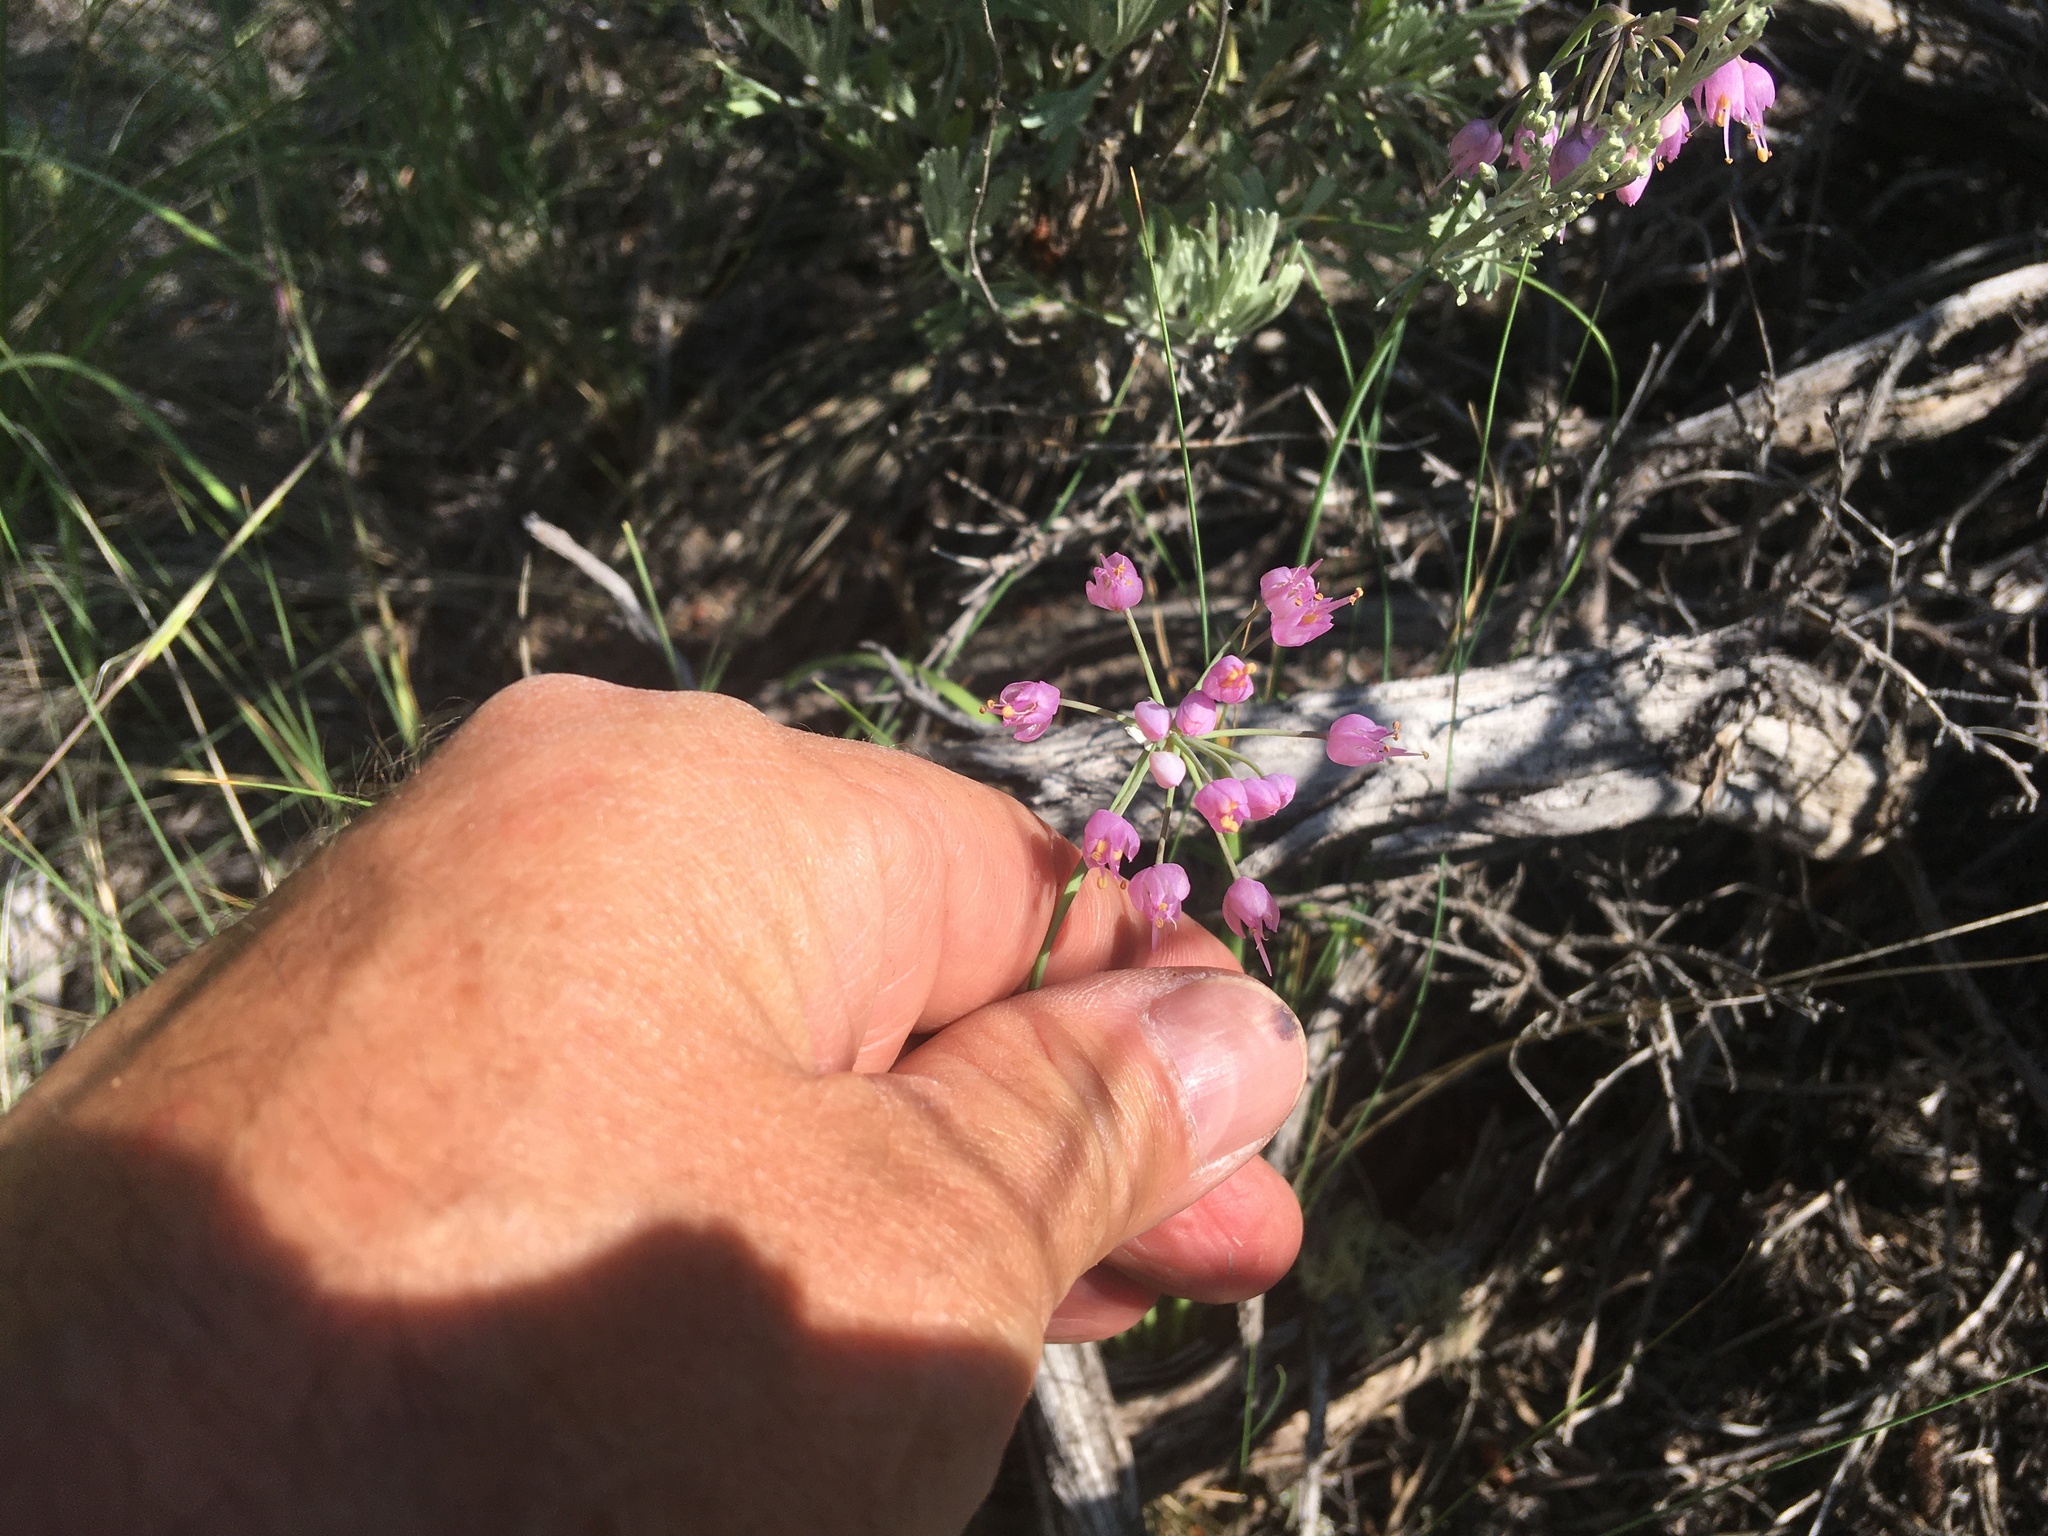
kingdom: Plantae
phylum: Tracheophyta
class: Liliopsida
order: Asparagales
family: Amaryllidaceae
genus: Allium
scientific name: Allium cernuum
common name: Nodding onion
